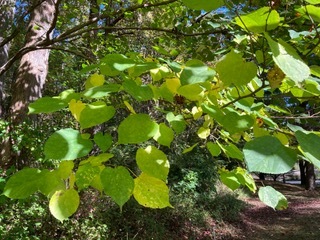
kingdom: Plantae
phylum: Tracheophyta
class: Magnoliopsida
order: Malvales
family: Malvaceae
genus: Tilia
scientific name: Tilia americana
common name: Basswood
